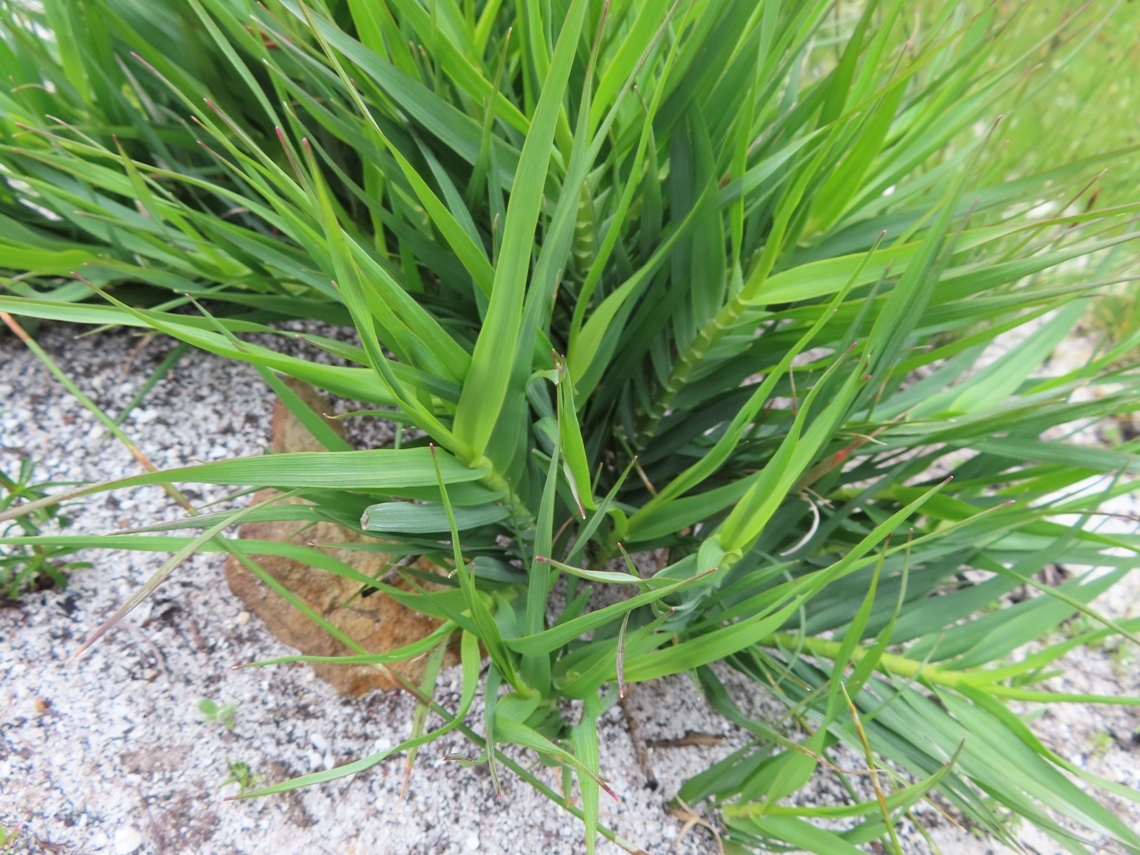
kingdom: Plantae
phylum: Tracheophyta
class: Liliopsida
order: Poales
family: Poaceae
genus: Pseudopentameris
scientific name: Pseudopentameris obtusifolia
